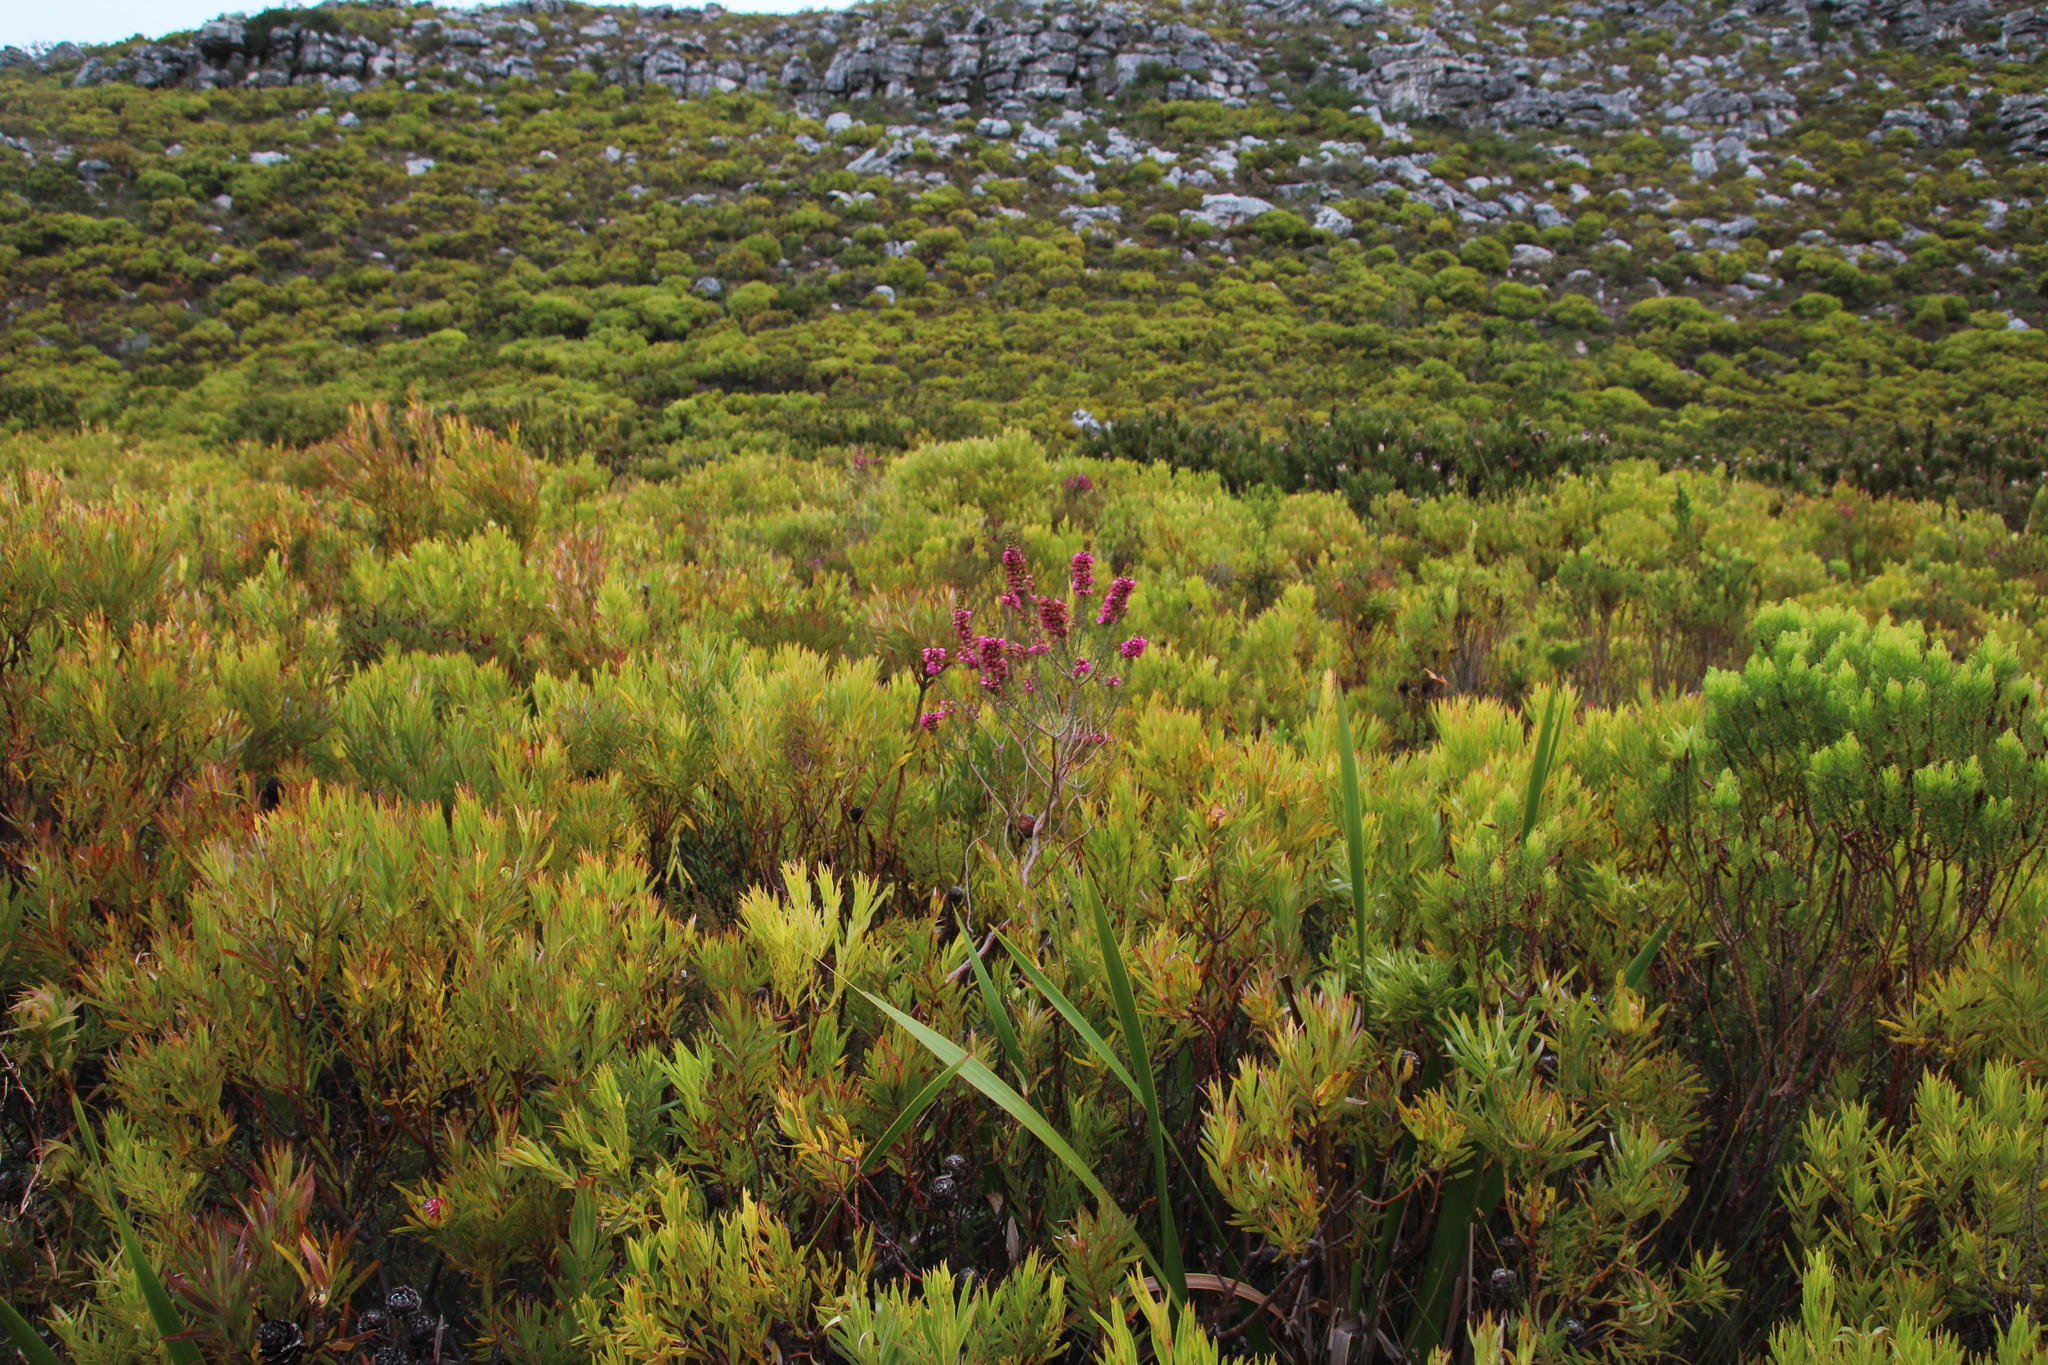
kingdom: Plantae
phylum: Tracheophyta
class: Magnoliopsida
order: Ericales
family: Ericaceae
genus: Erica
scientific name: Erica abietina
